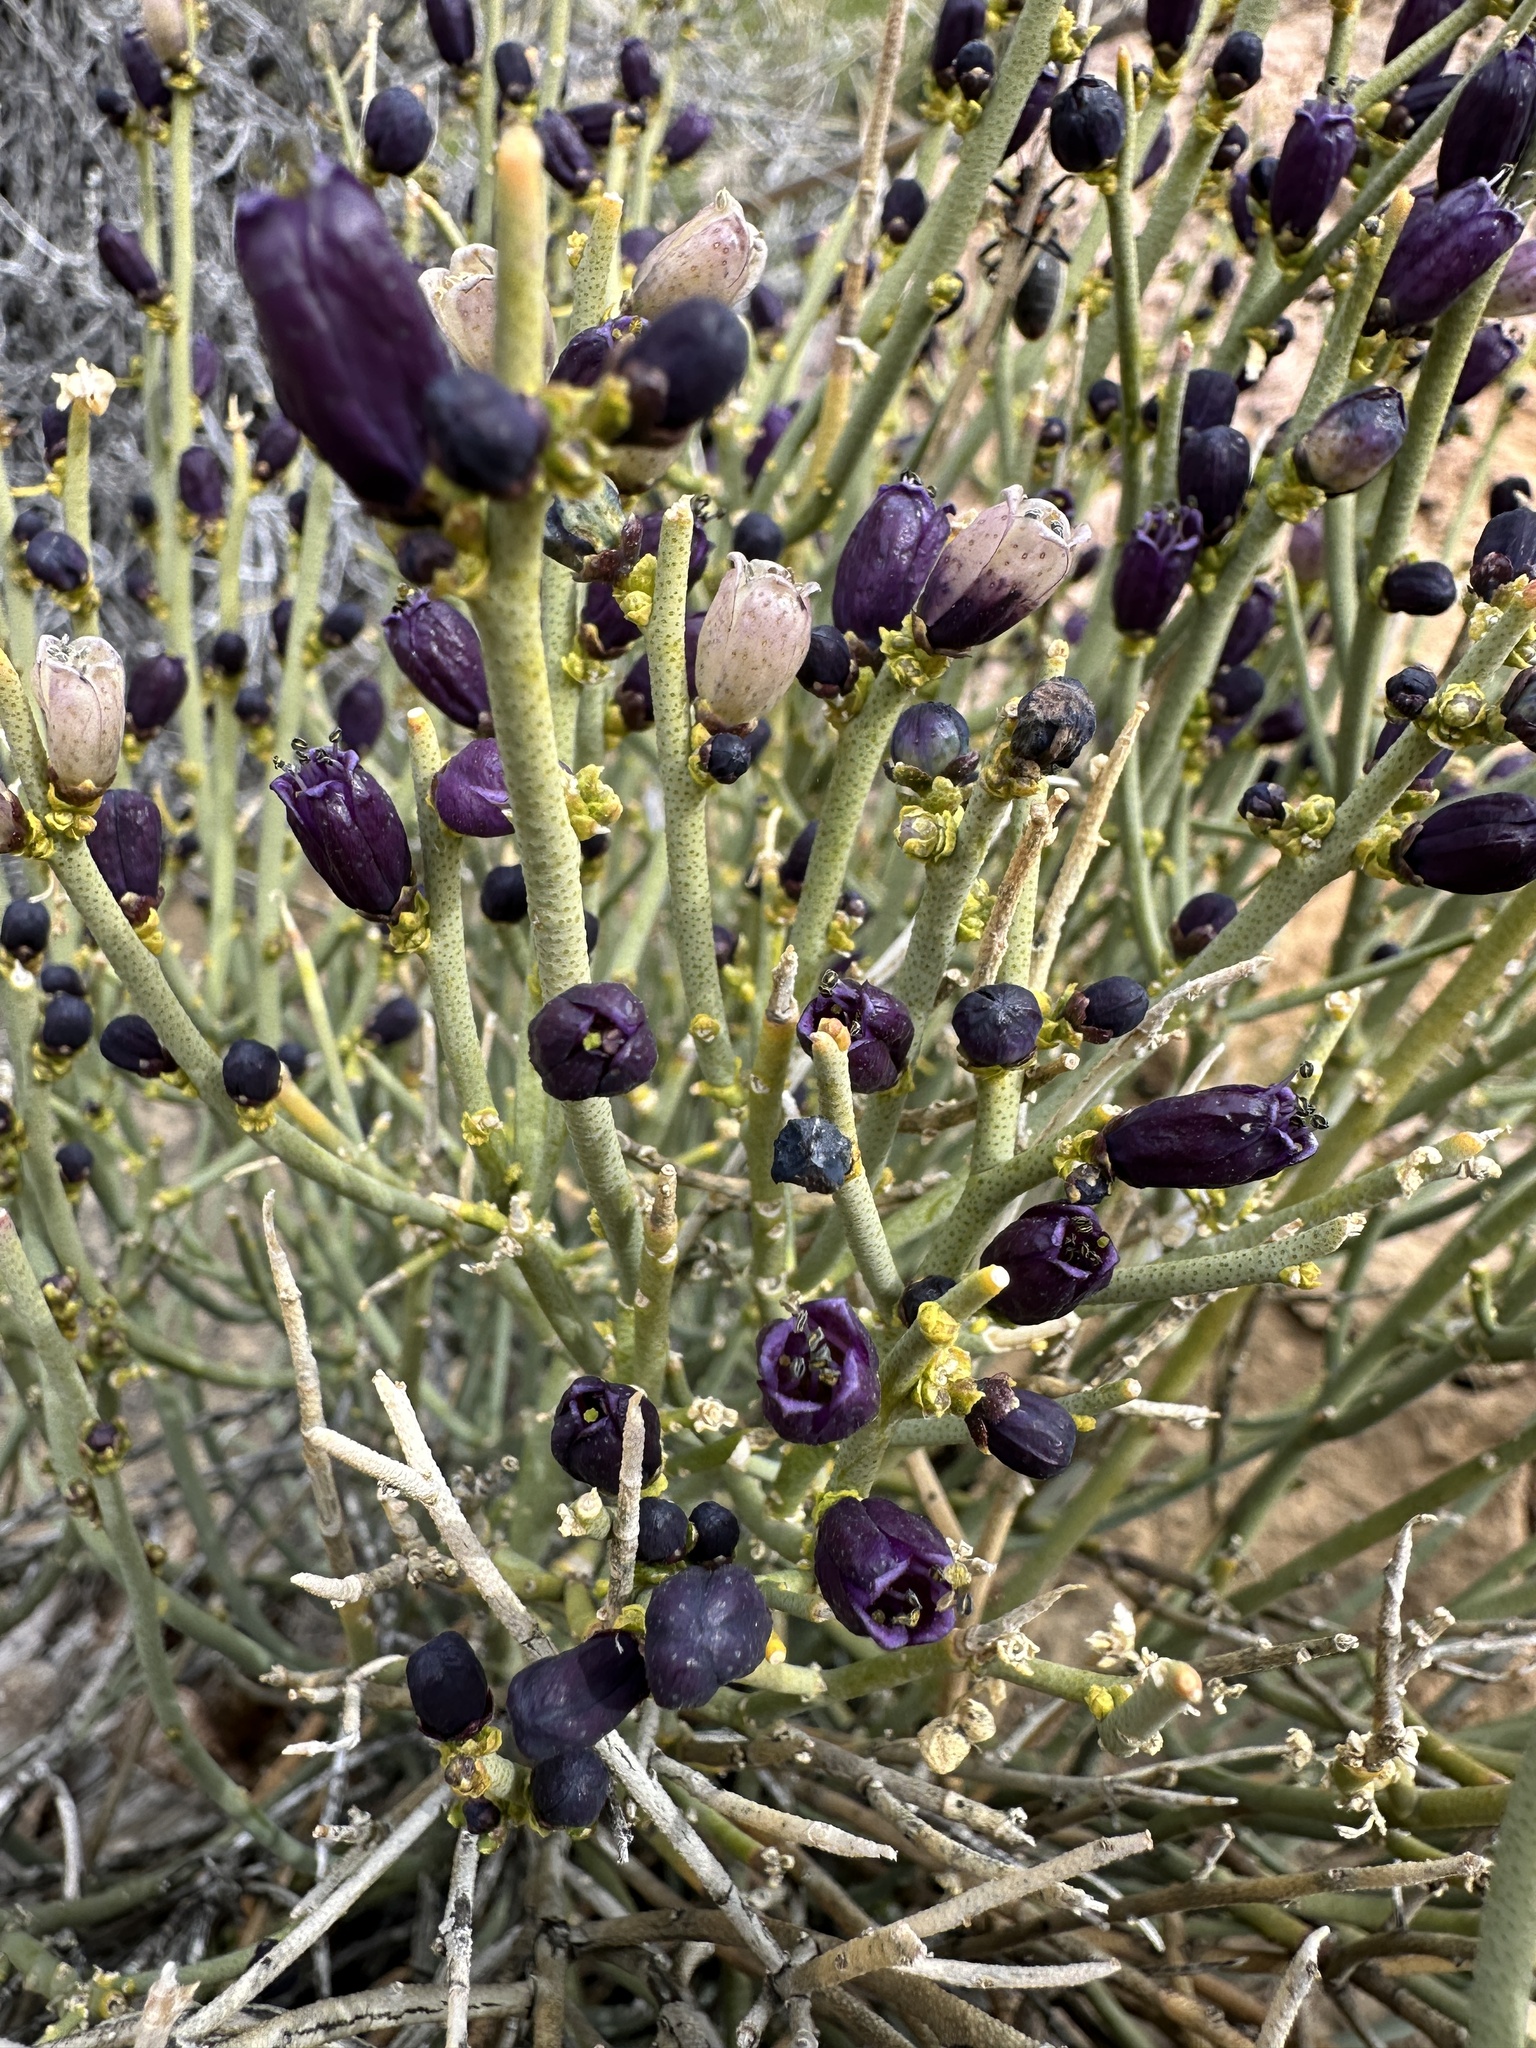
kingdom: Plantae
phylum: Tracheophyta
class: Magnoliopsida
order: Sapindales
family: Rutaceae
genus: Thamnosma
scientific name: Thamnosma montana
